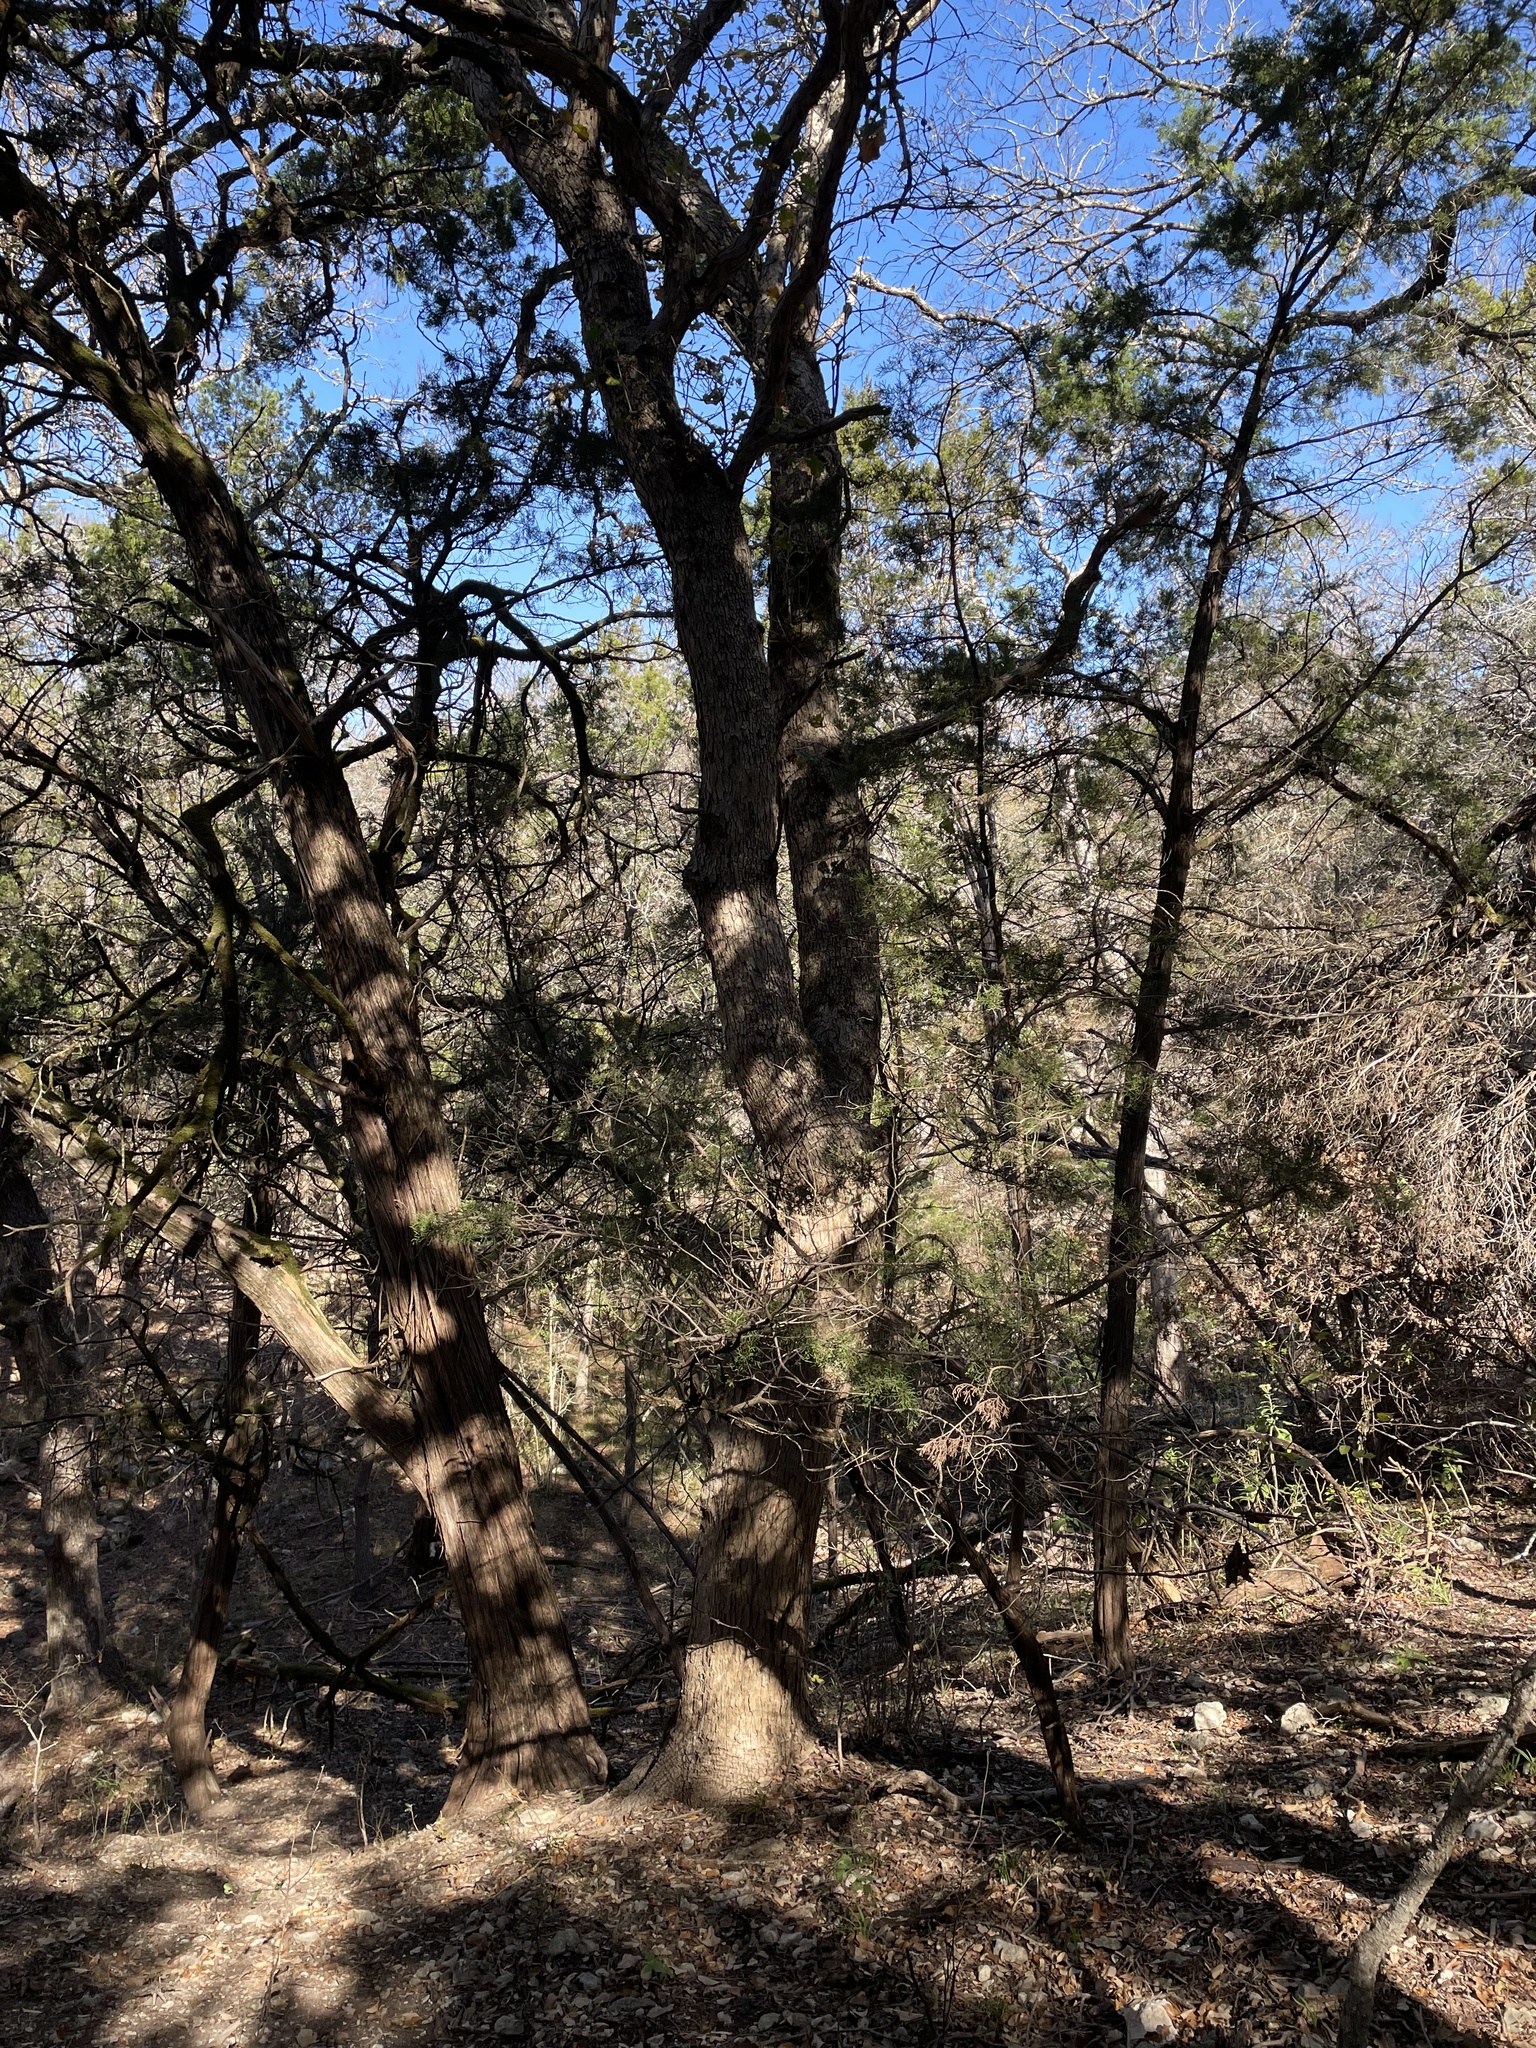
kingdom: Plantae
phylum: Tracheophyta
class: Magnoliopsida
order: Fagales
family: Fagaceae
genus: Quercus
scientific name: Quercus sinuata
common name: Durand oak
